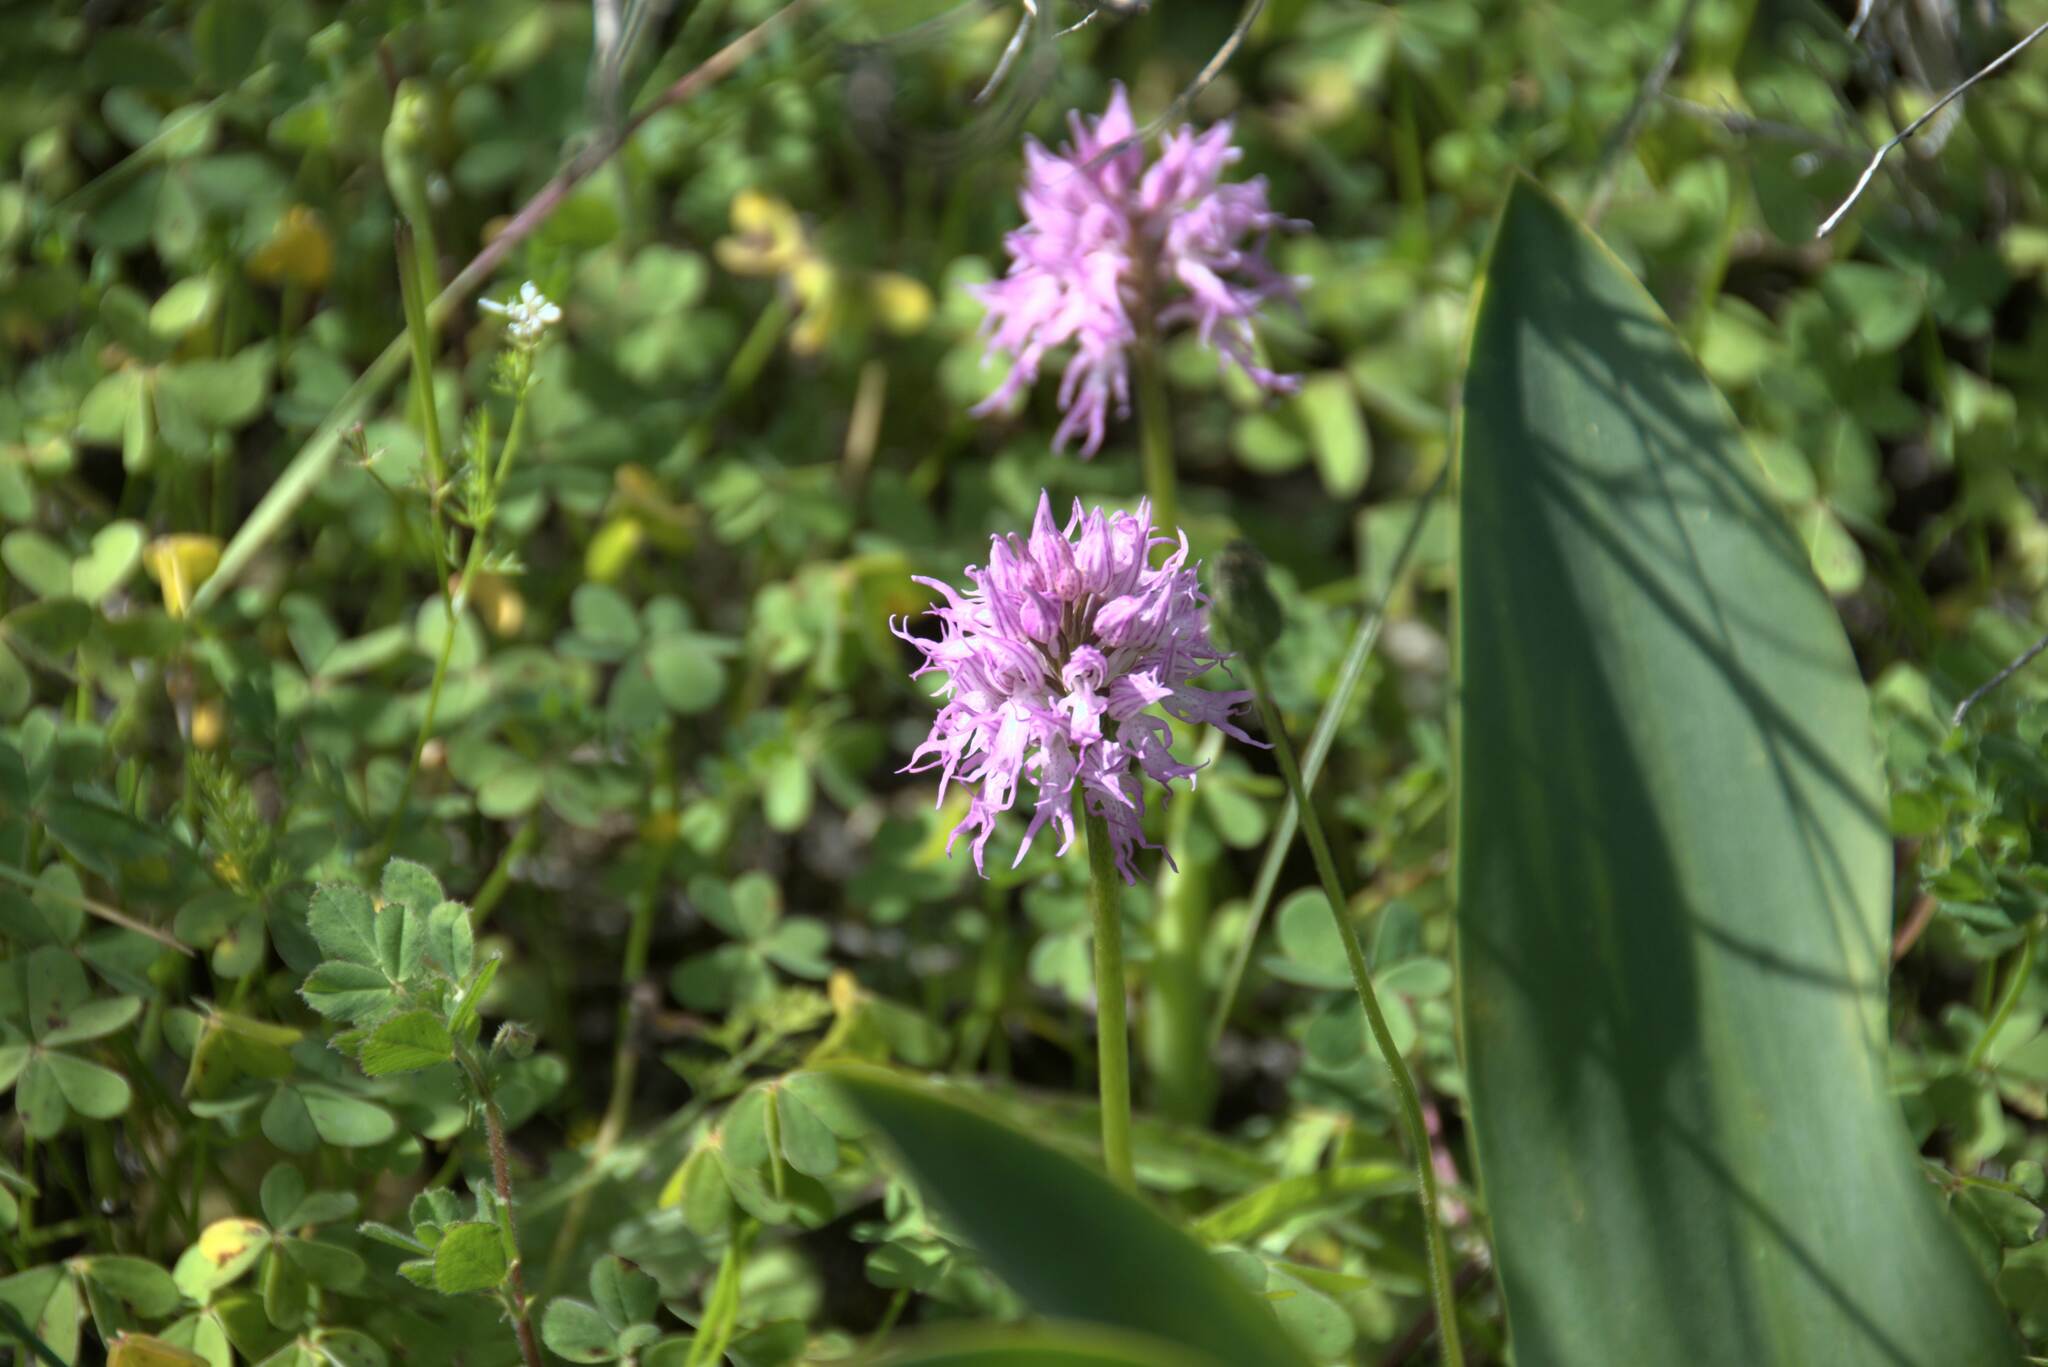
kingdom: Plantae
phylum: Tracheophyta
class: Liliopsida
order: Asparagales
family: Orchidaceae
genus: Orchis
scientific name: Orchis italica
